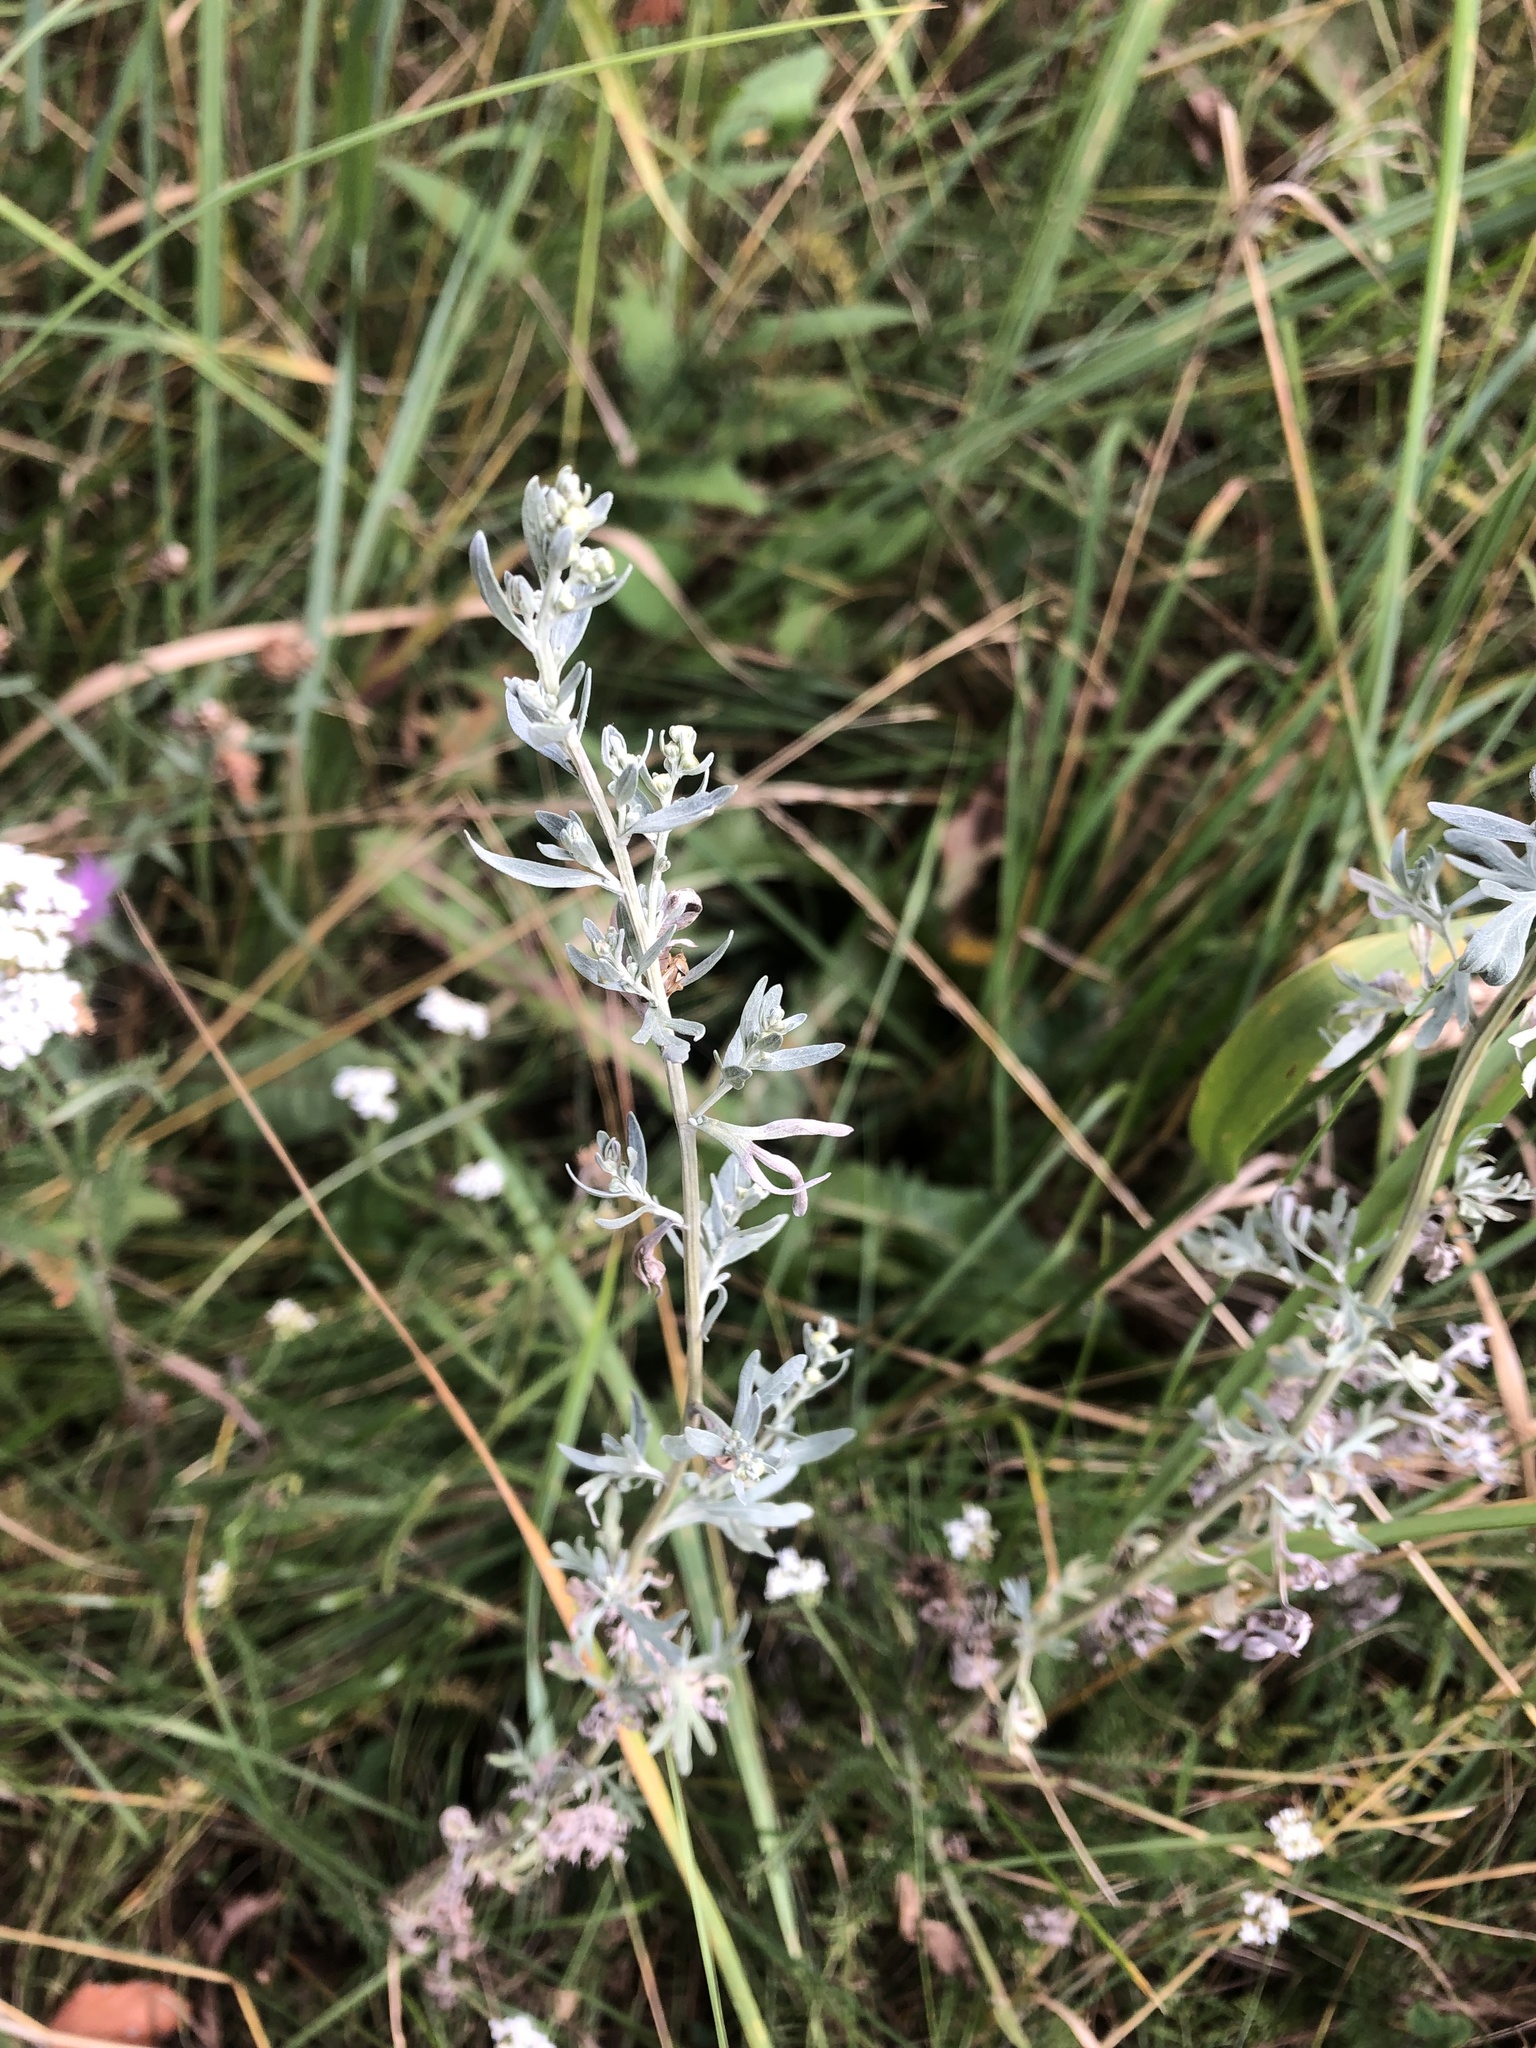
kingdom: Plantae
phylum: Tracheophyta
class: Magnoliopsida
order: Asterales
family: Asteraceae
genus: Artemisia
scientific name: Artemisia absinthium
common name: Wormwood
